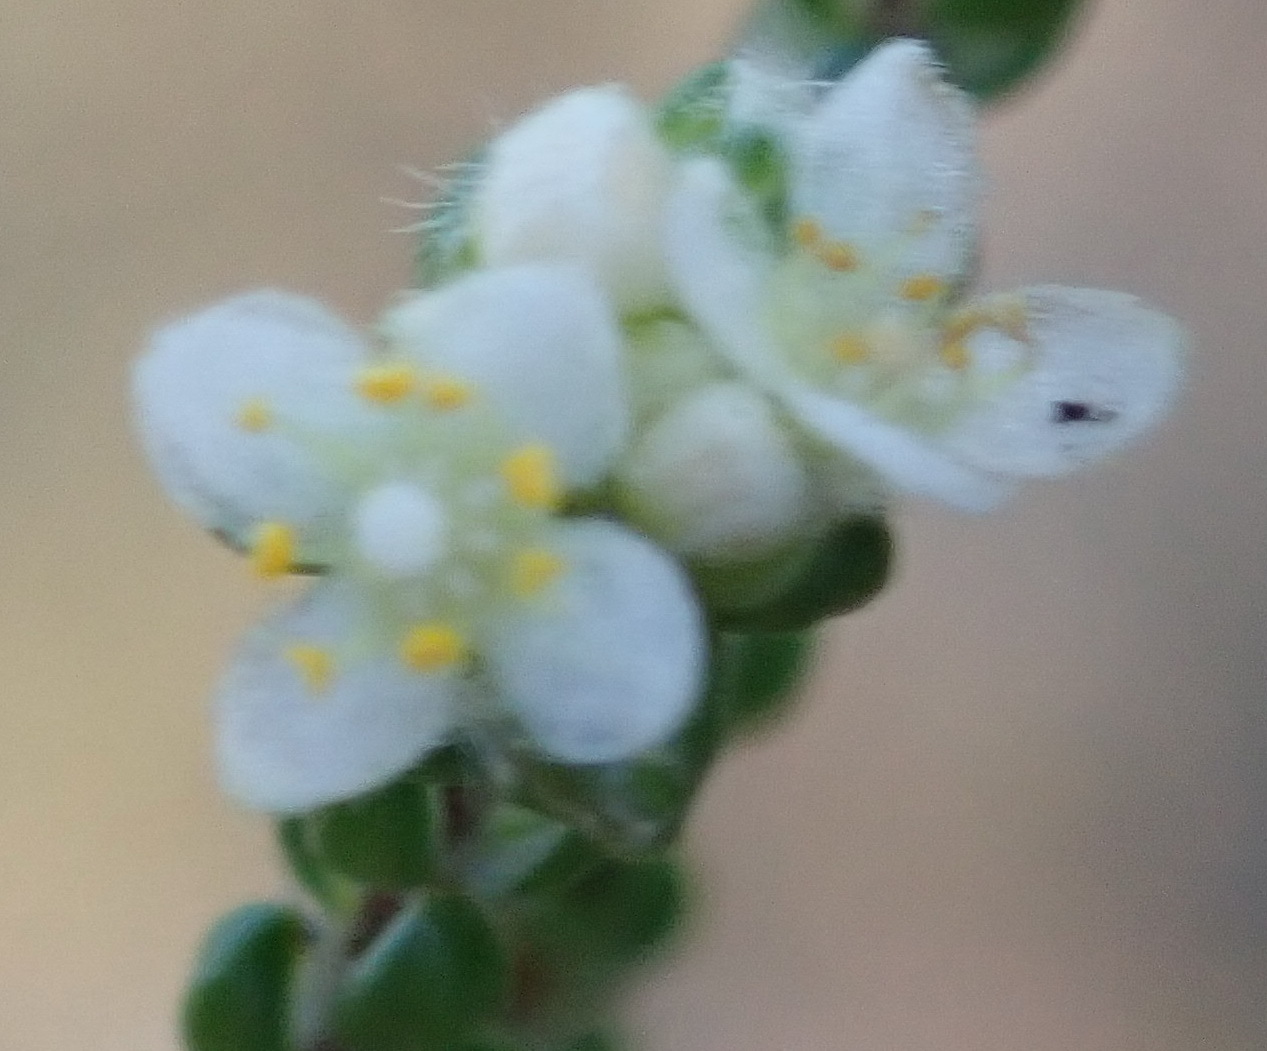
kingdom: Plantae
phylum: Tracheophyta
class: Magnoliopsida
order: Malvales
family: Thymelaeaceae
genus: Lachnaea
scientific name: Lachnaea ericoides
